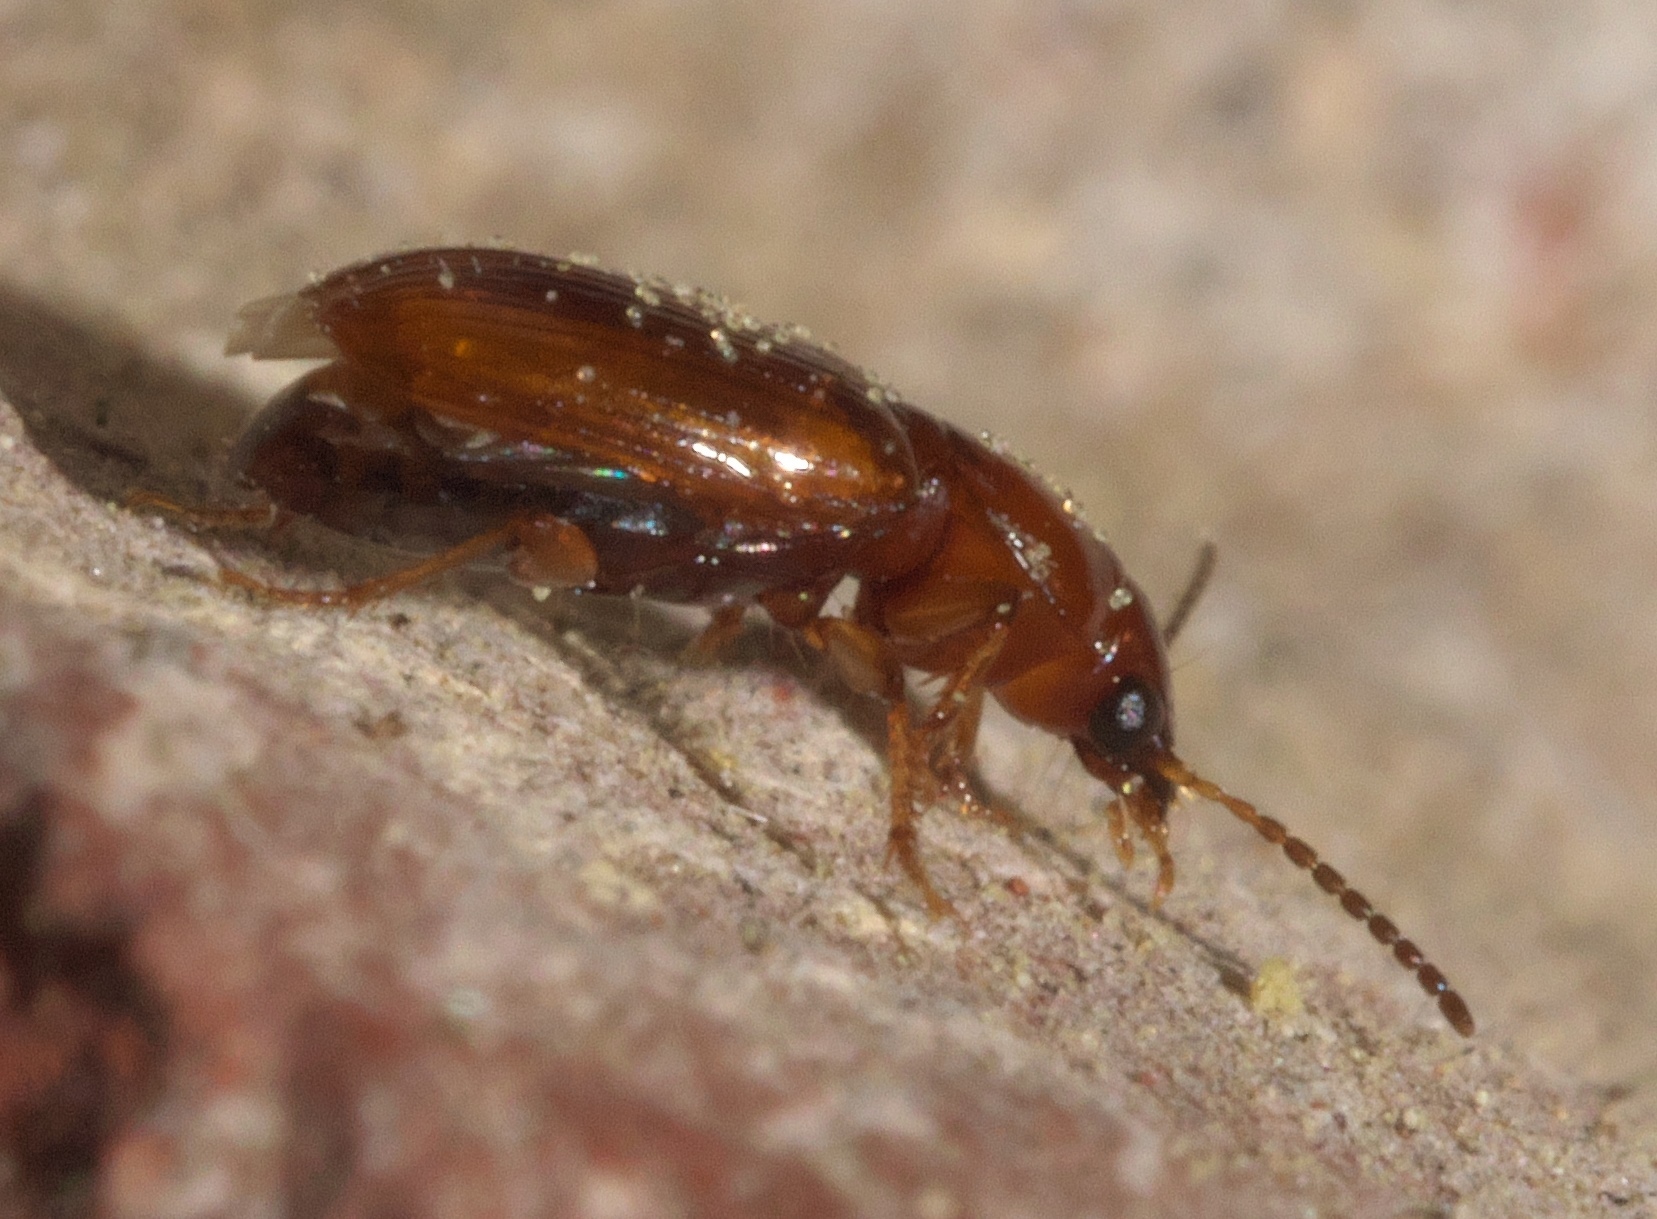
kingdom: Animalia
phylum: Arthropoda
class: Insecta
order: Coleoptera
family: Carabidae
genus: Acupalpus
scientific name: Acupalpus testaceus
